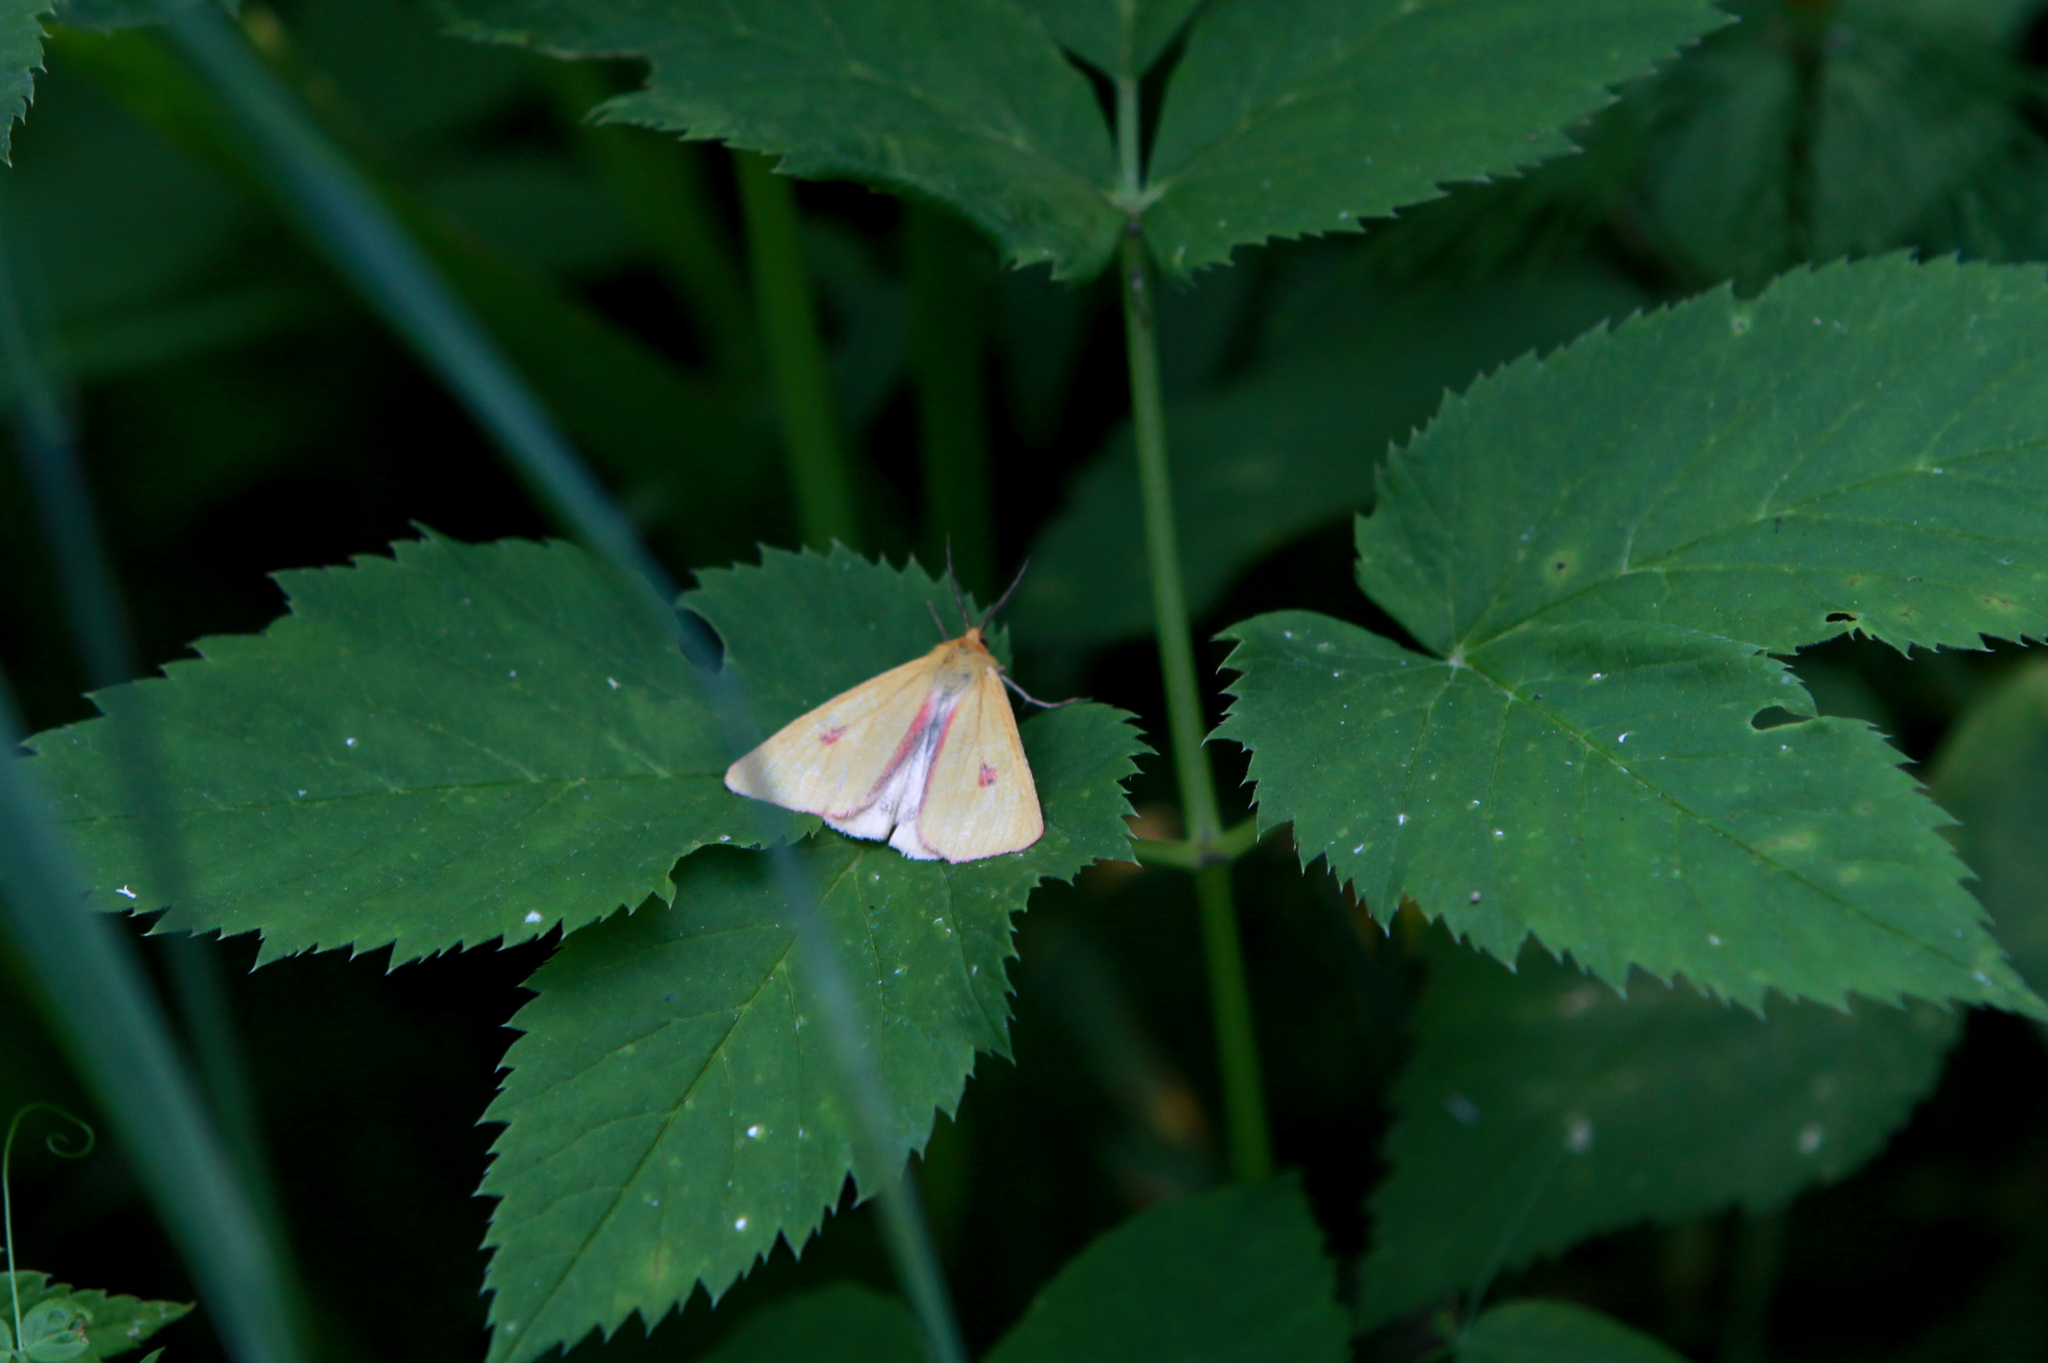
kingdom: Animalia
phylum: Arthropoda
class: Insecta
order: Lepidoptera
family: Erebidae
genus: Diacrisia
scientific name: Diacrisia sannio
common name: Clouded buff
